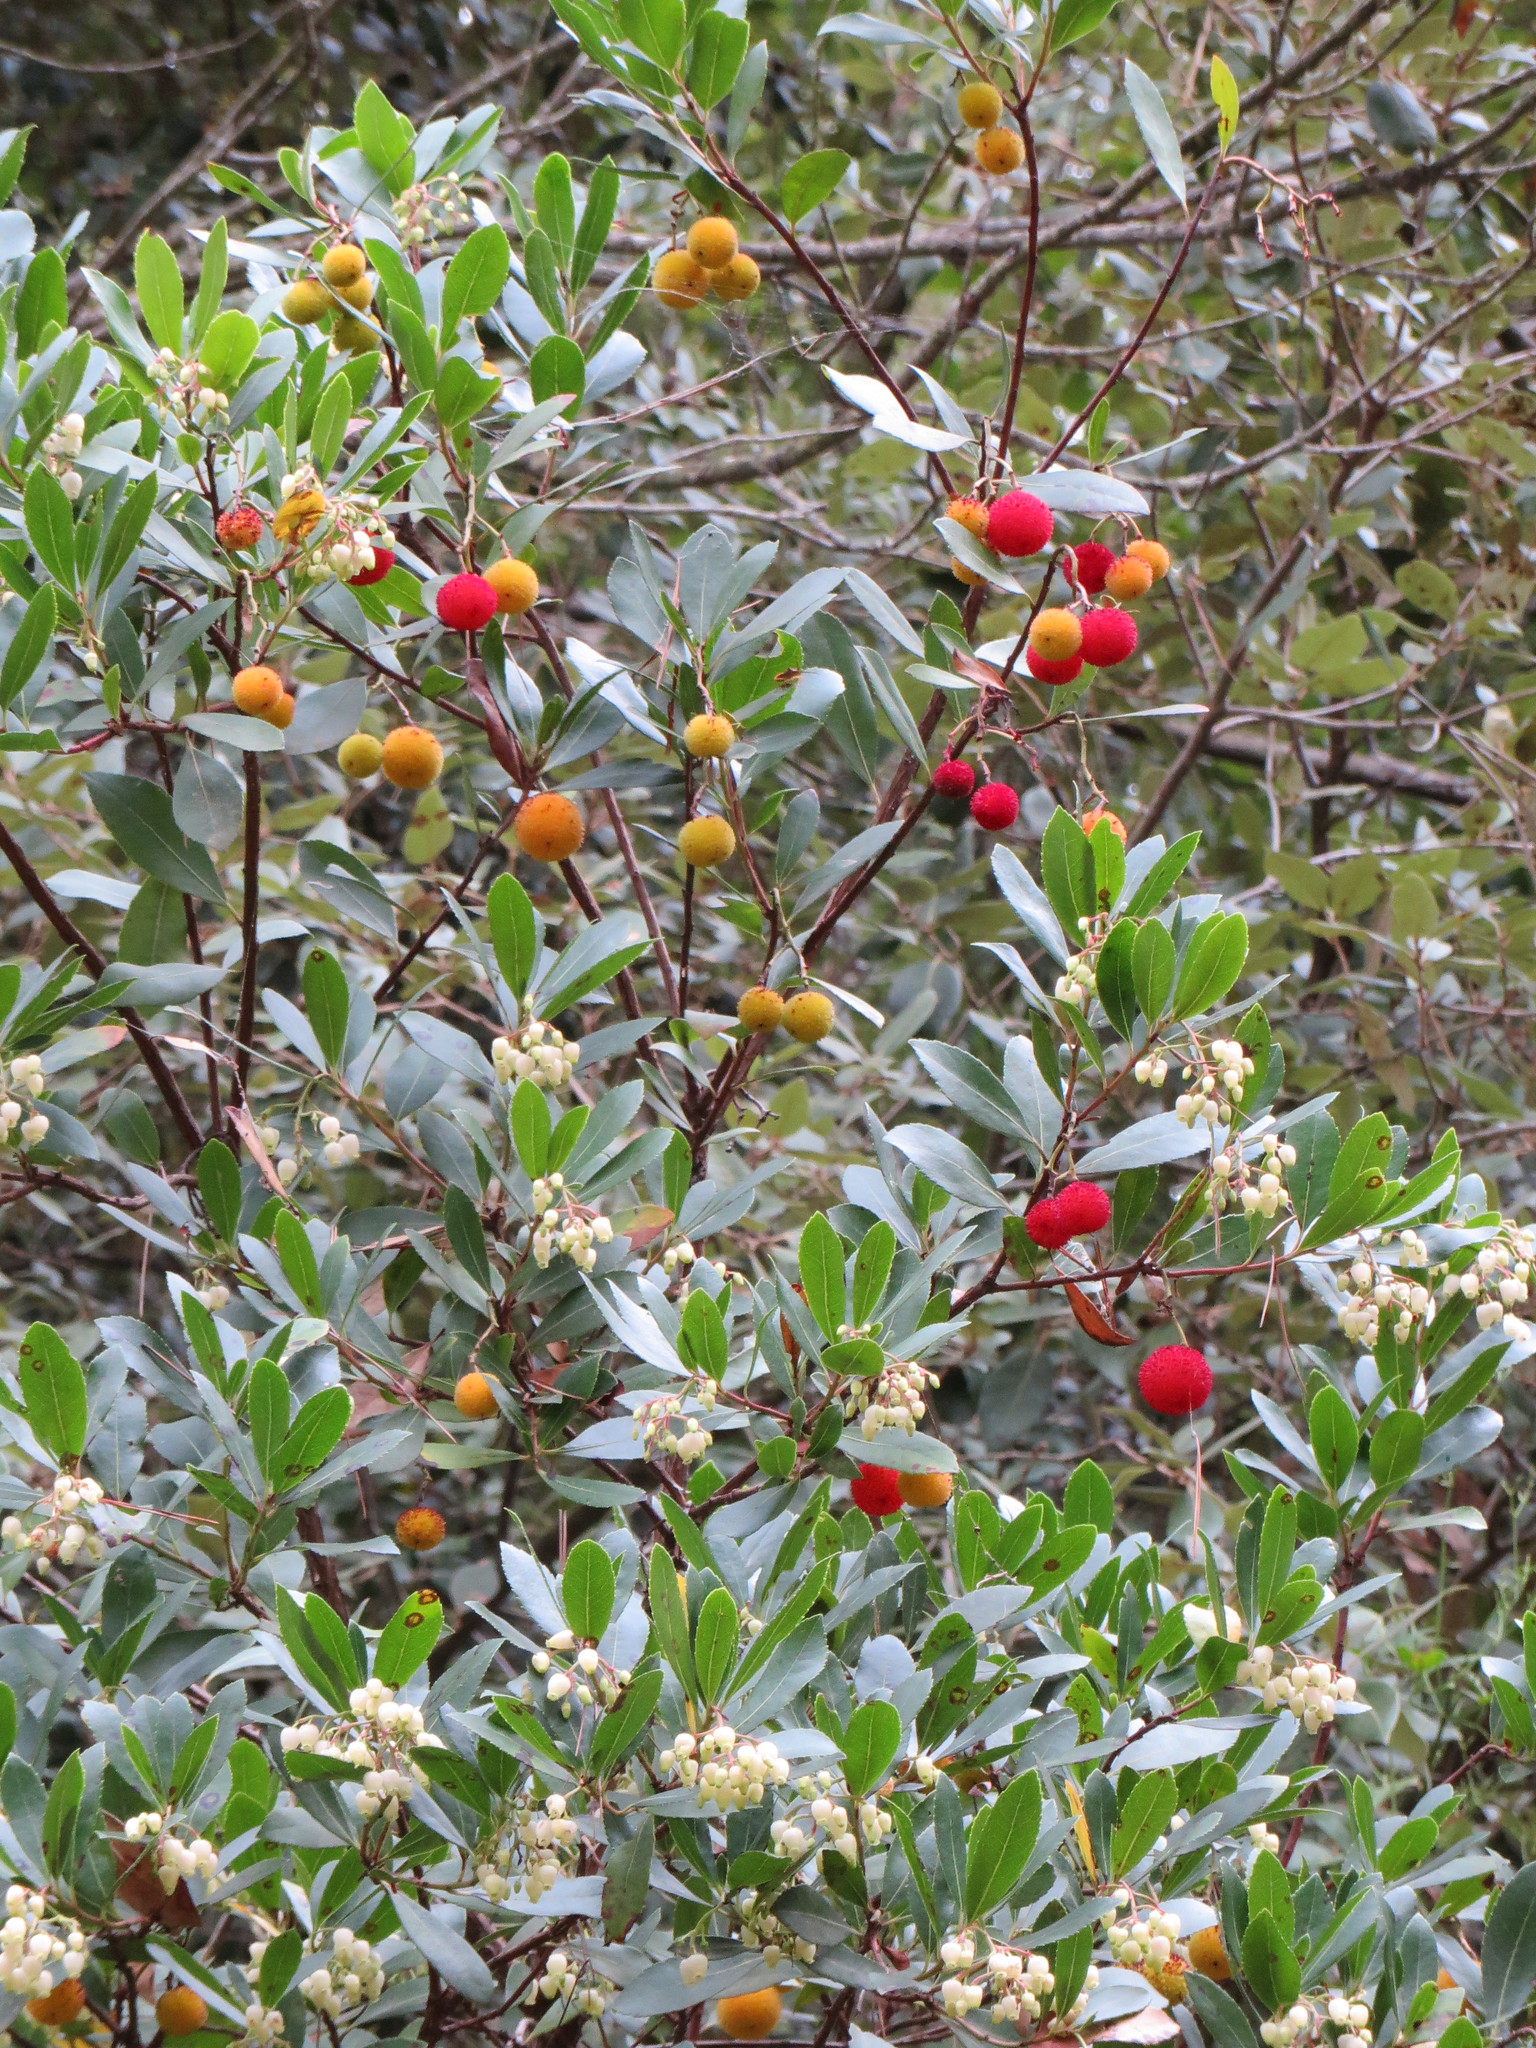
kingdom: Plantae
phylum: Tracheophyta
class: Magnoliopsida
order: Ericales
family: Ericaceae
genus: Arbutus
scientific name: Arbutus unedo
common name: Strawberry-tree
